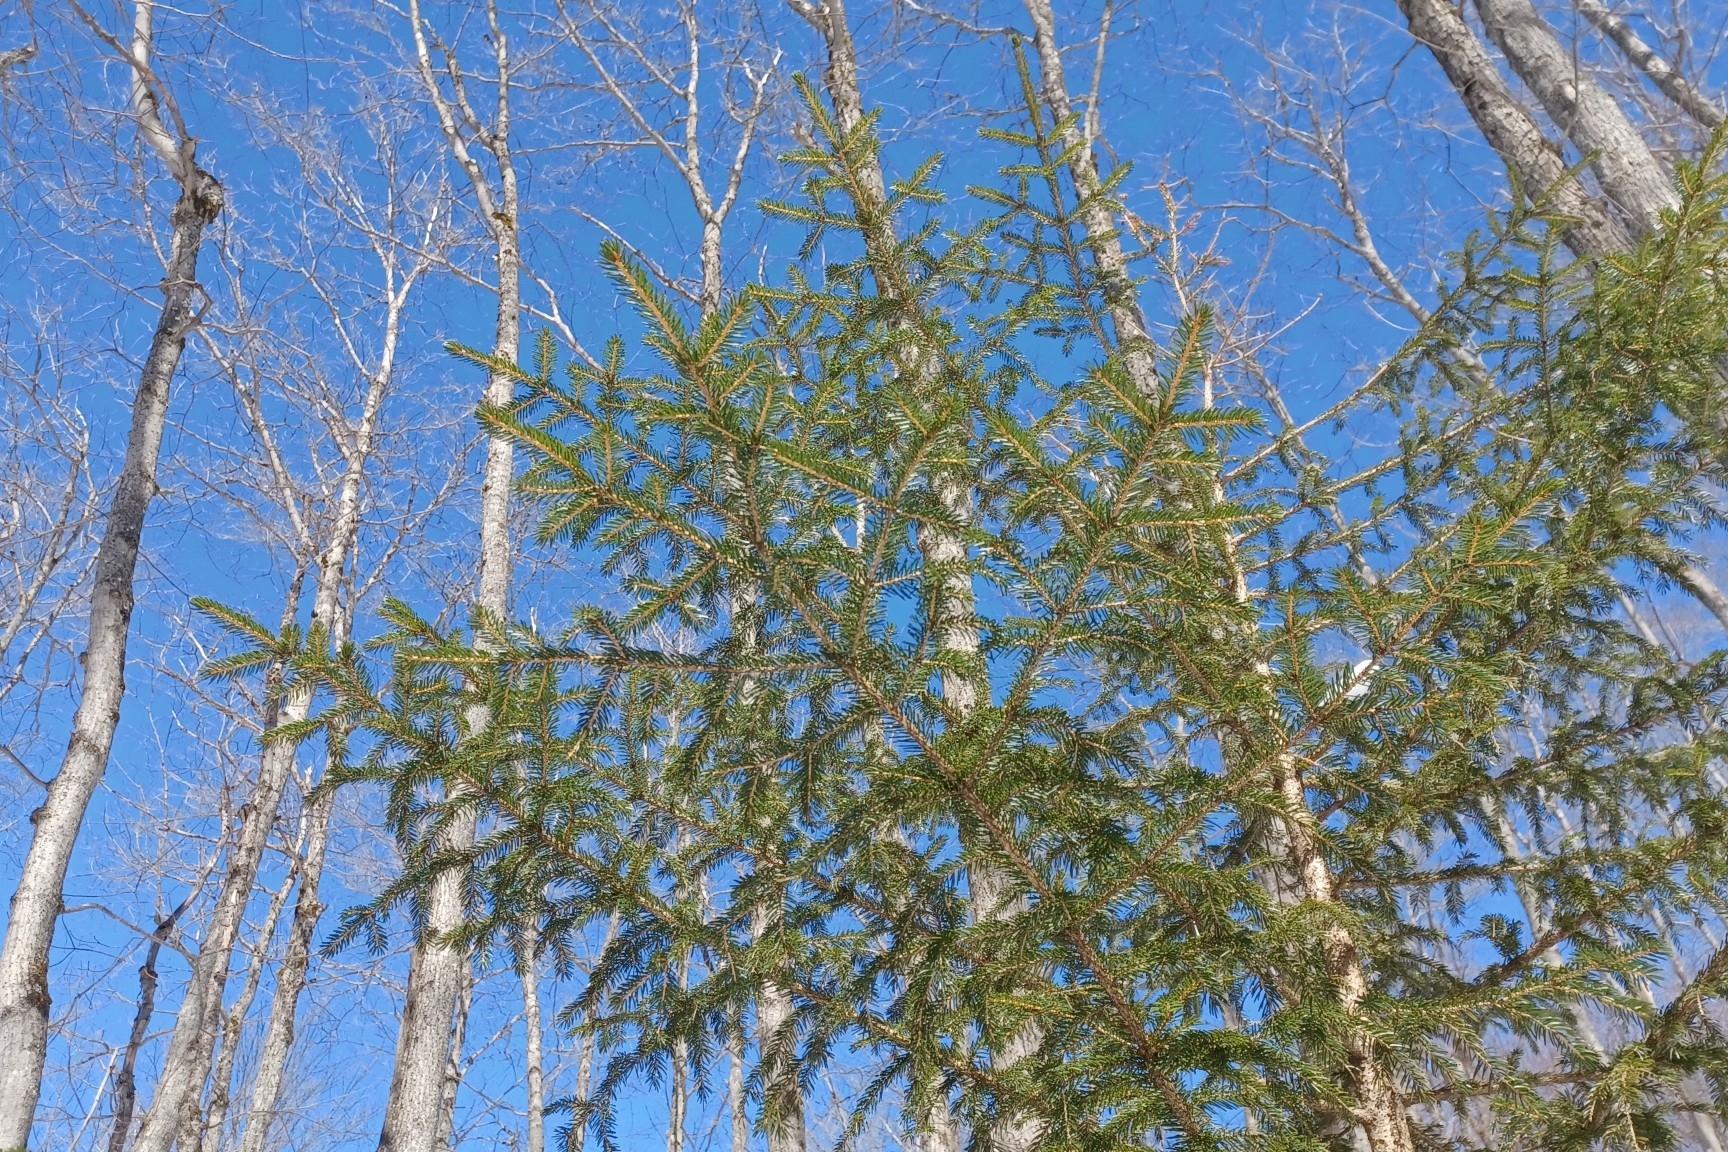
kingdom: Plantae
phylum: Tracheophyta
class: Pinopsida
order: Pinales
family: Pinaceae
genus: Picea
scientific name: Picea rubens
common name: Red spruce
